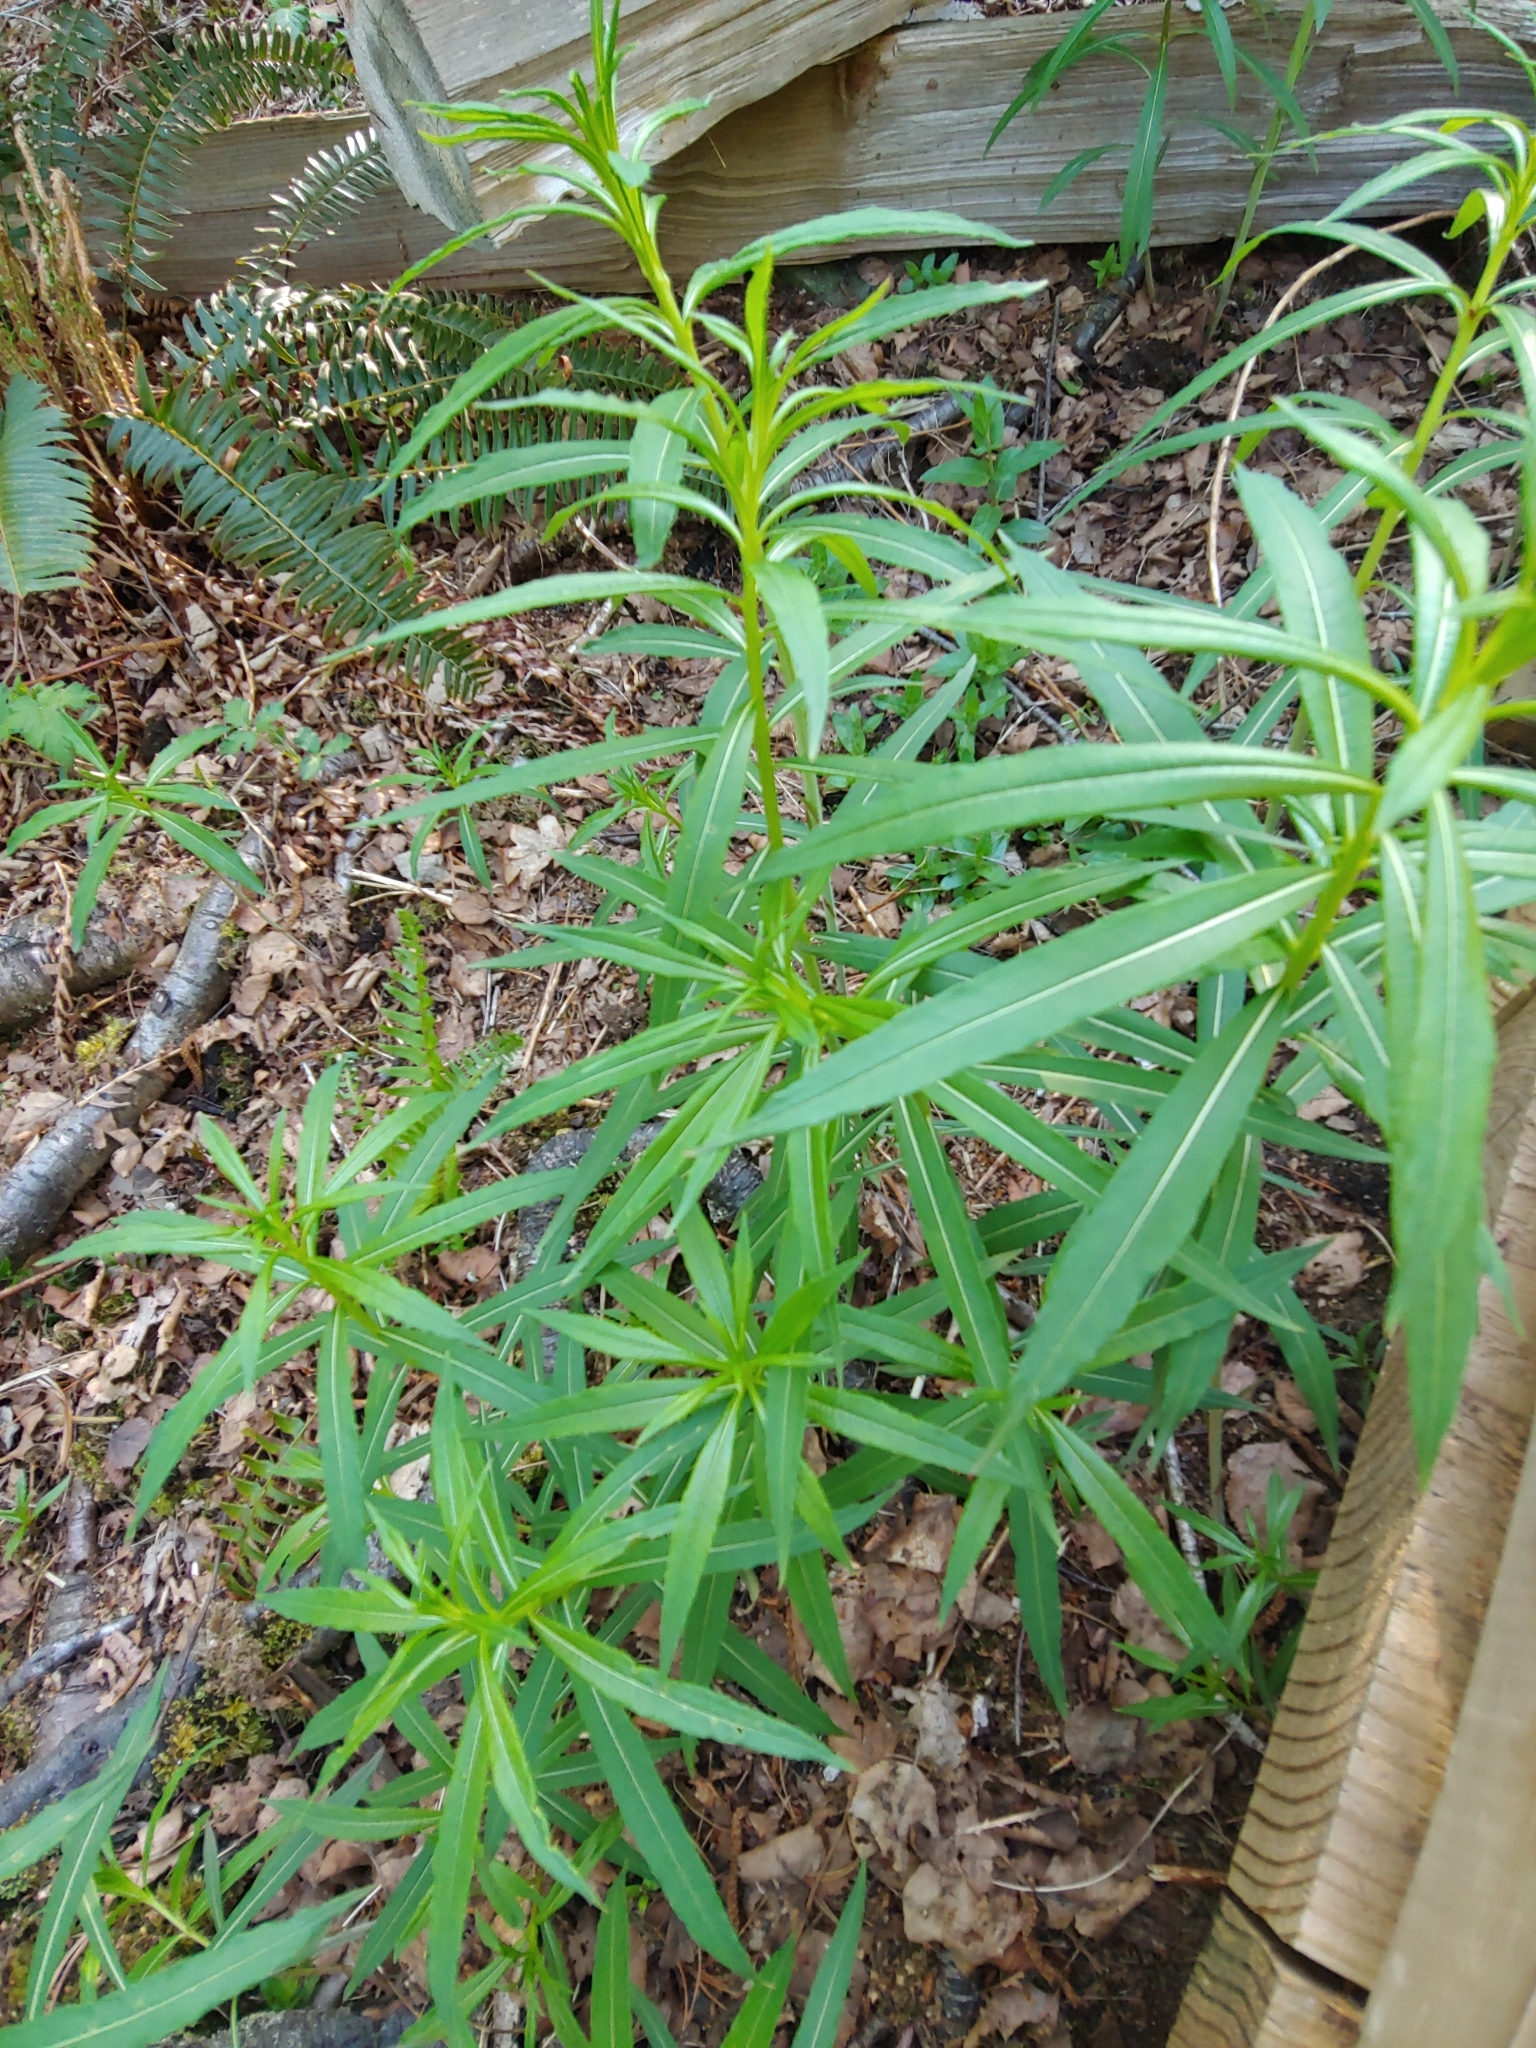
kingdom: Plantae
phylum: Tracheophyta
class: Magnoliopsida
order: Myrtales
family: Onagraceae
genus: Chamaenerion
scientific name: Chamaenerion angustifolium
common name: Fireweed
